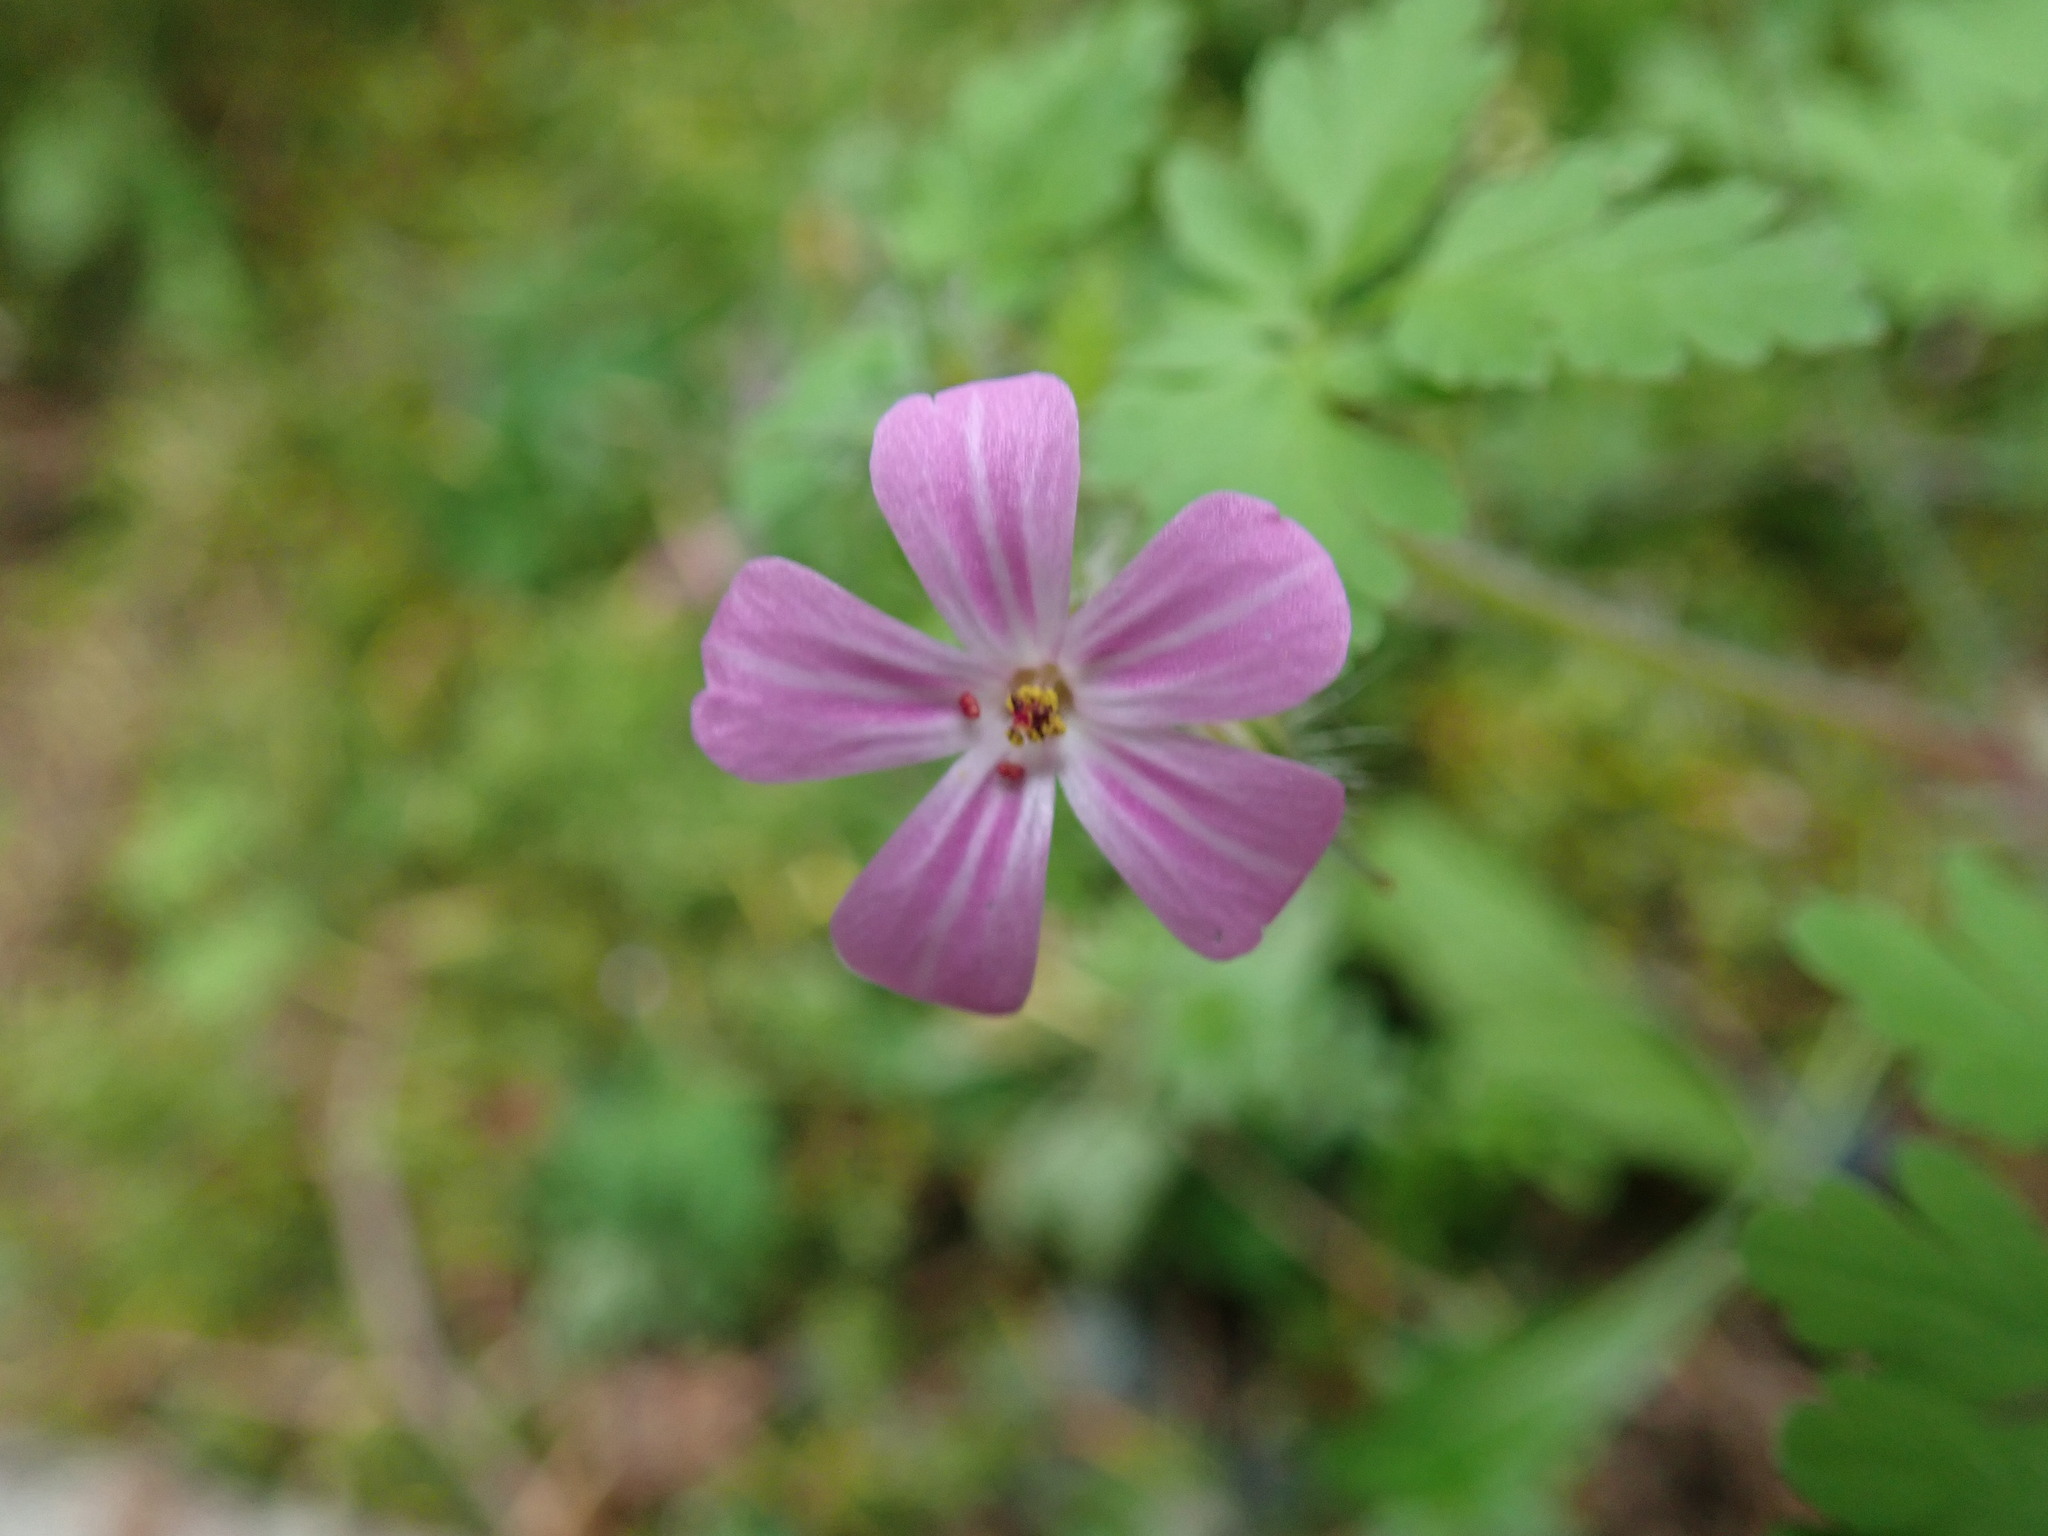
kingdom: Plantae
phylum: Tracheophyta
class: Magnoliopsida
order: Geraniales
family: Geraniaceae
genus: Geranium
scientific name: Geranium robertianum
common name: Herb-robert
